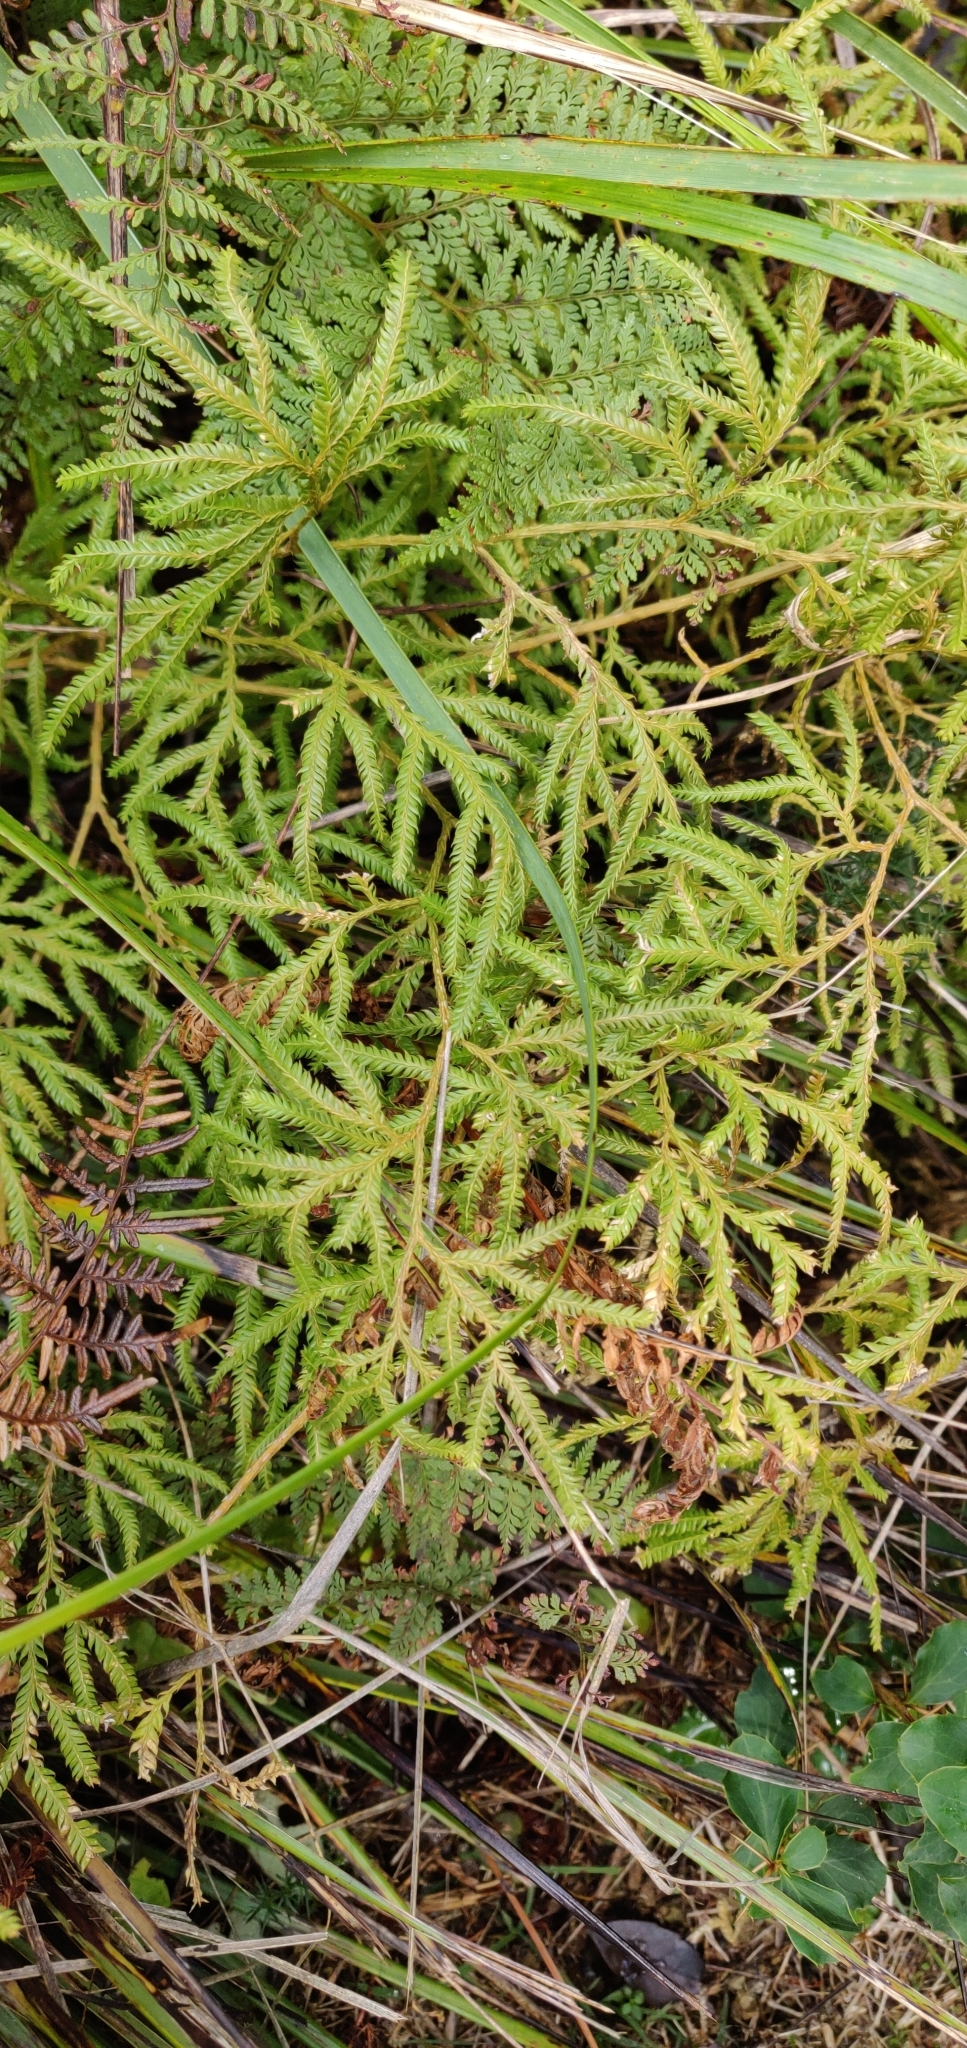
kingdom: Plantae
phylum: Tracheophyta
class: Lycopodiopsida
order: Lycopodiales
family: Lycopodiaceae
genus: Lycopodium
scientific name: Lycopodium volubile
